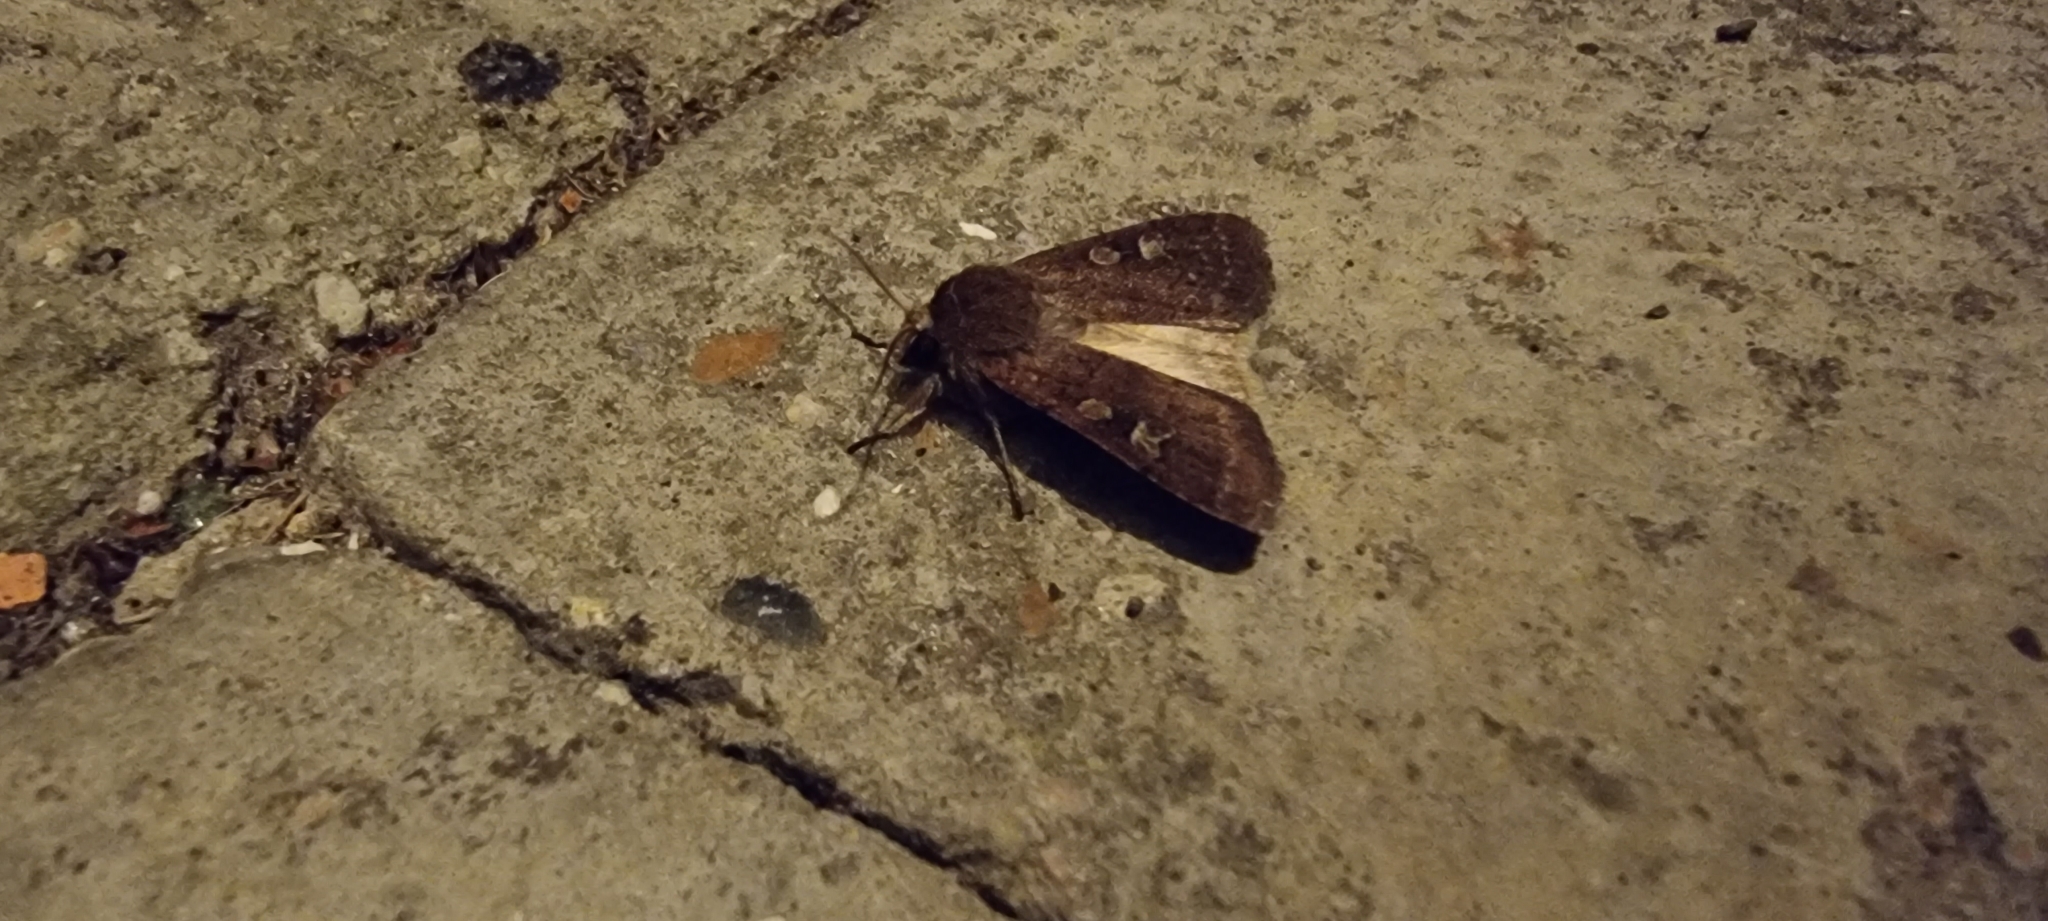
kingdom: Animalia
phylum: Arthropoda
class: Insecta
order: Lepidoptera
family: Noctuidae
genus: Xestia
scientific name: Xestia xanthographa
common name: Square-spot rustic
